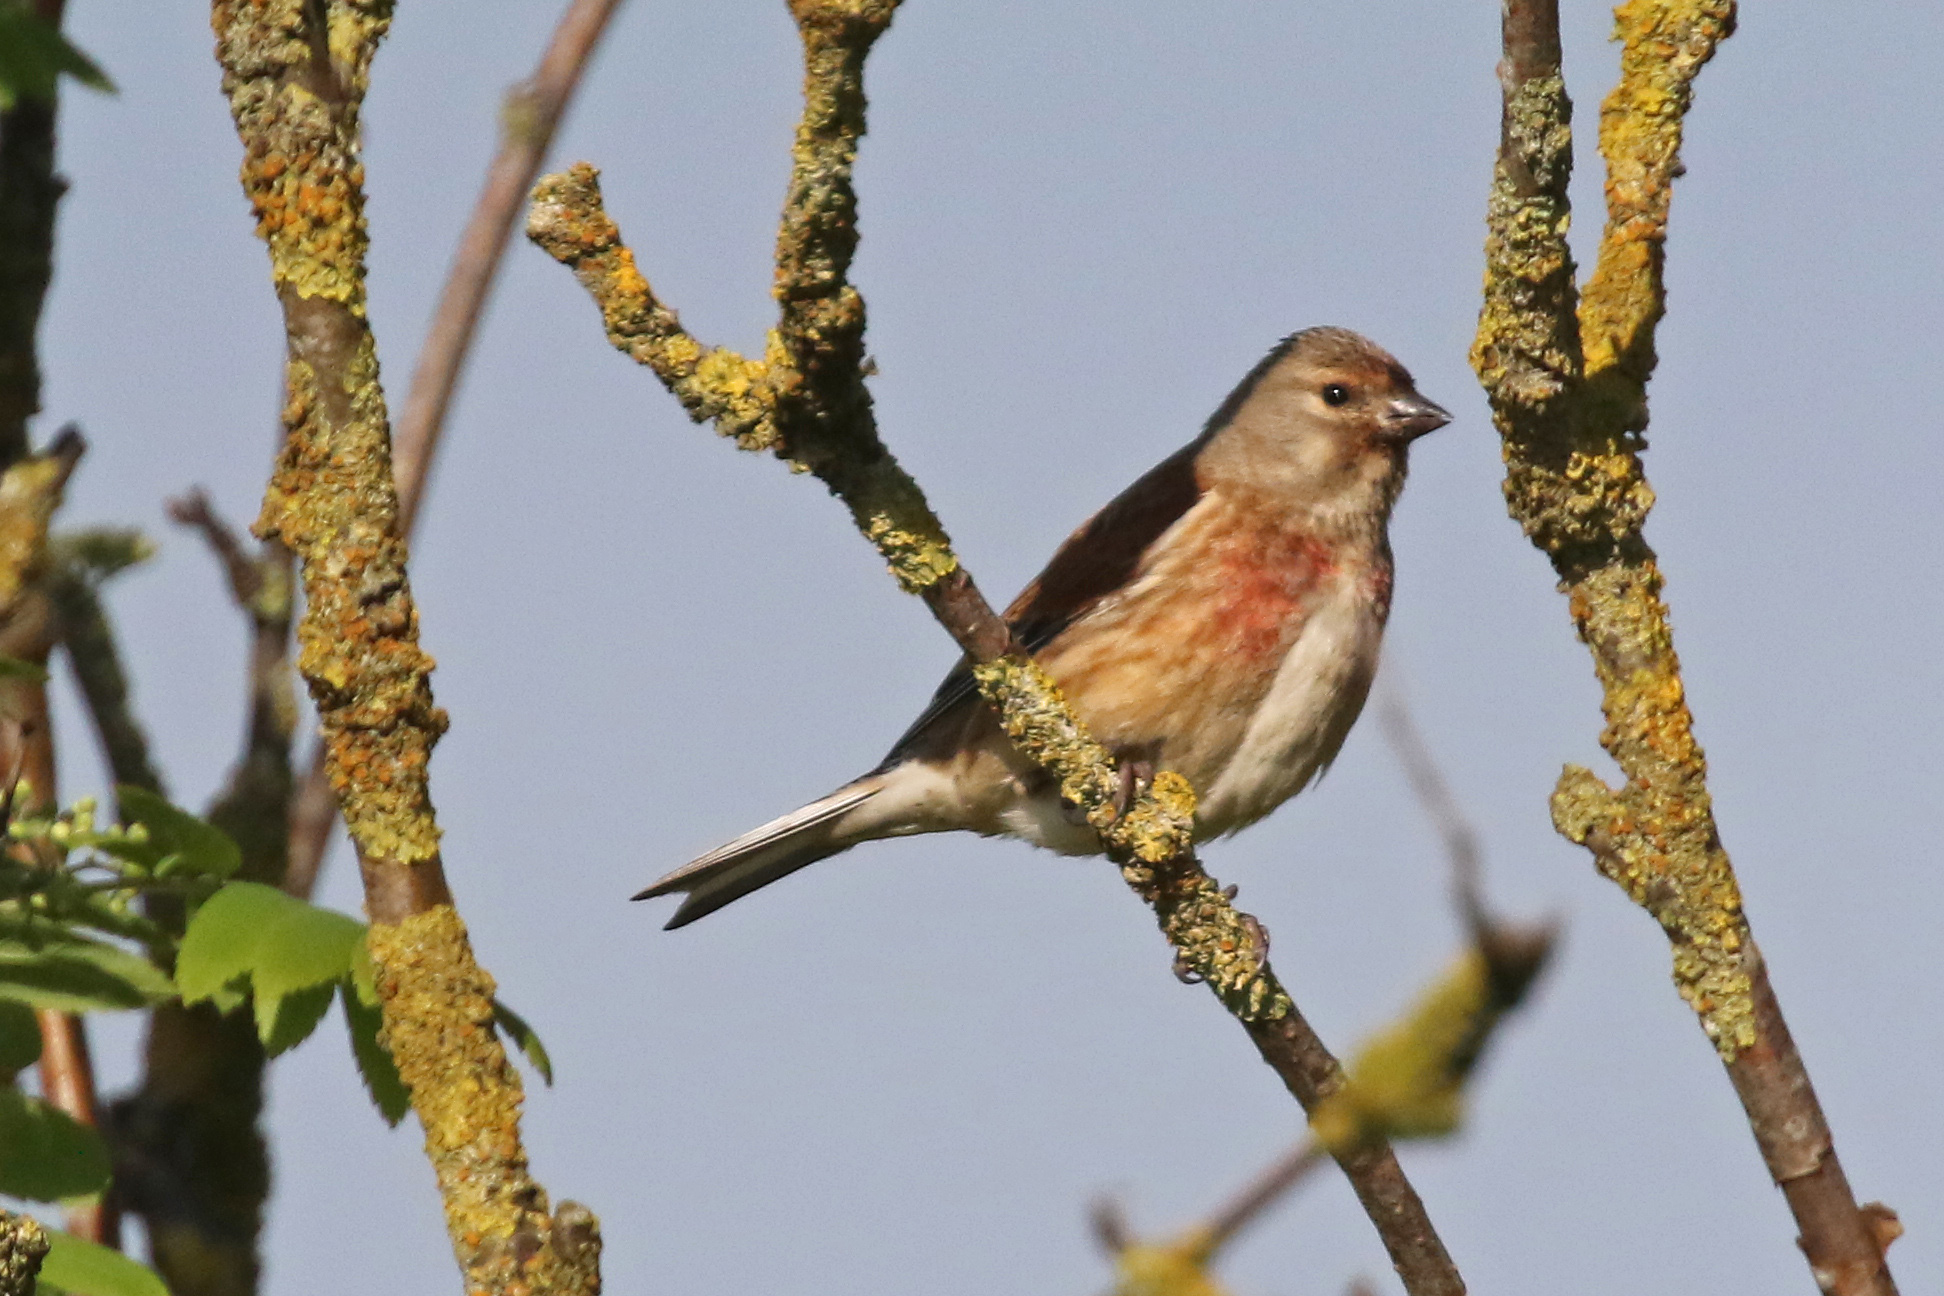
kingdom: Animalia
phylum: Chordata
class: Aves
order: Passeriformes
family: Fringillidae
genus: Linaria
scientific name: Linaria cannabina
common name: Common linnet
